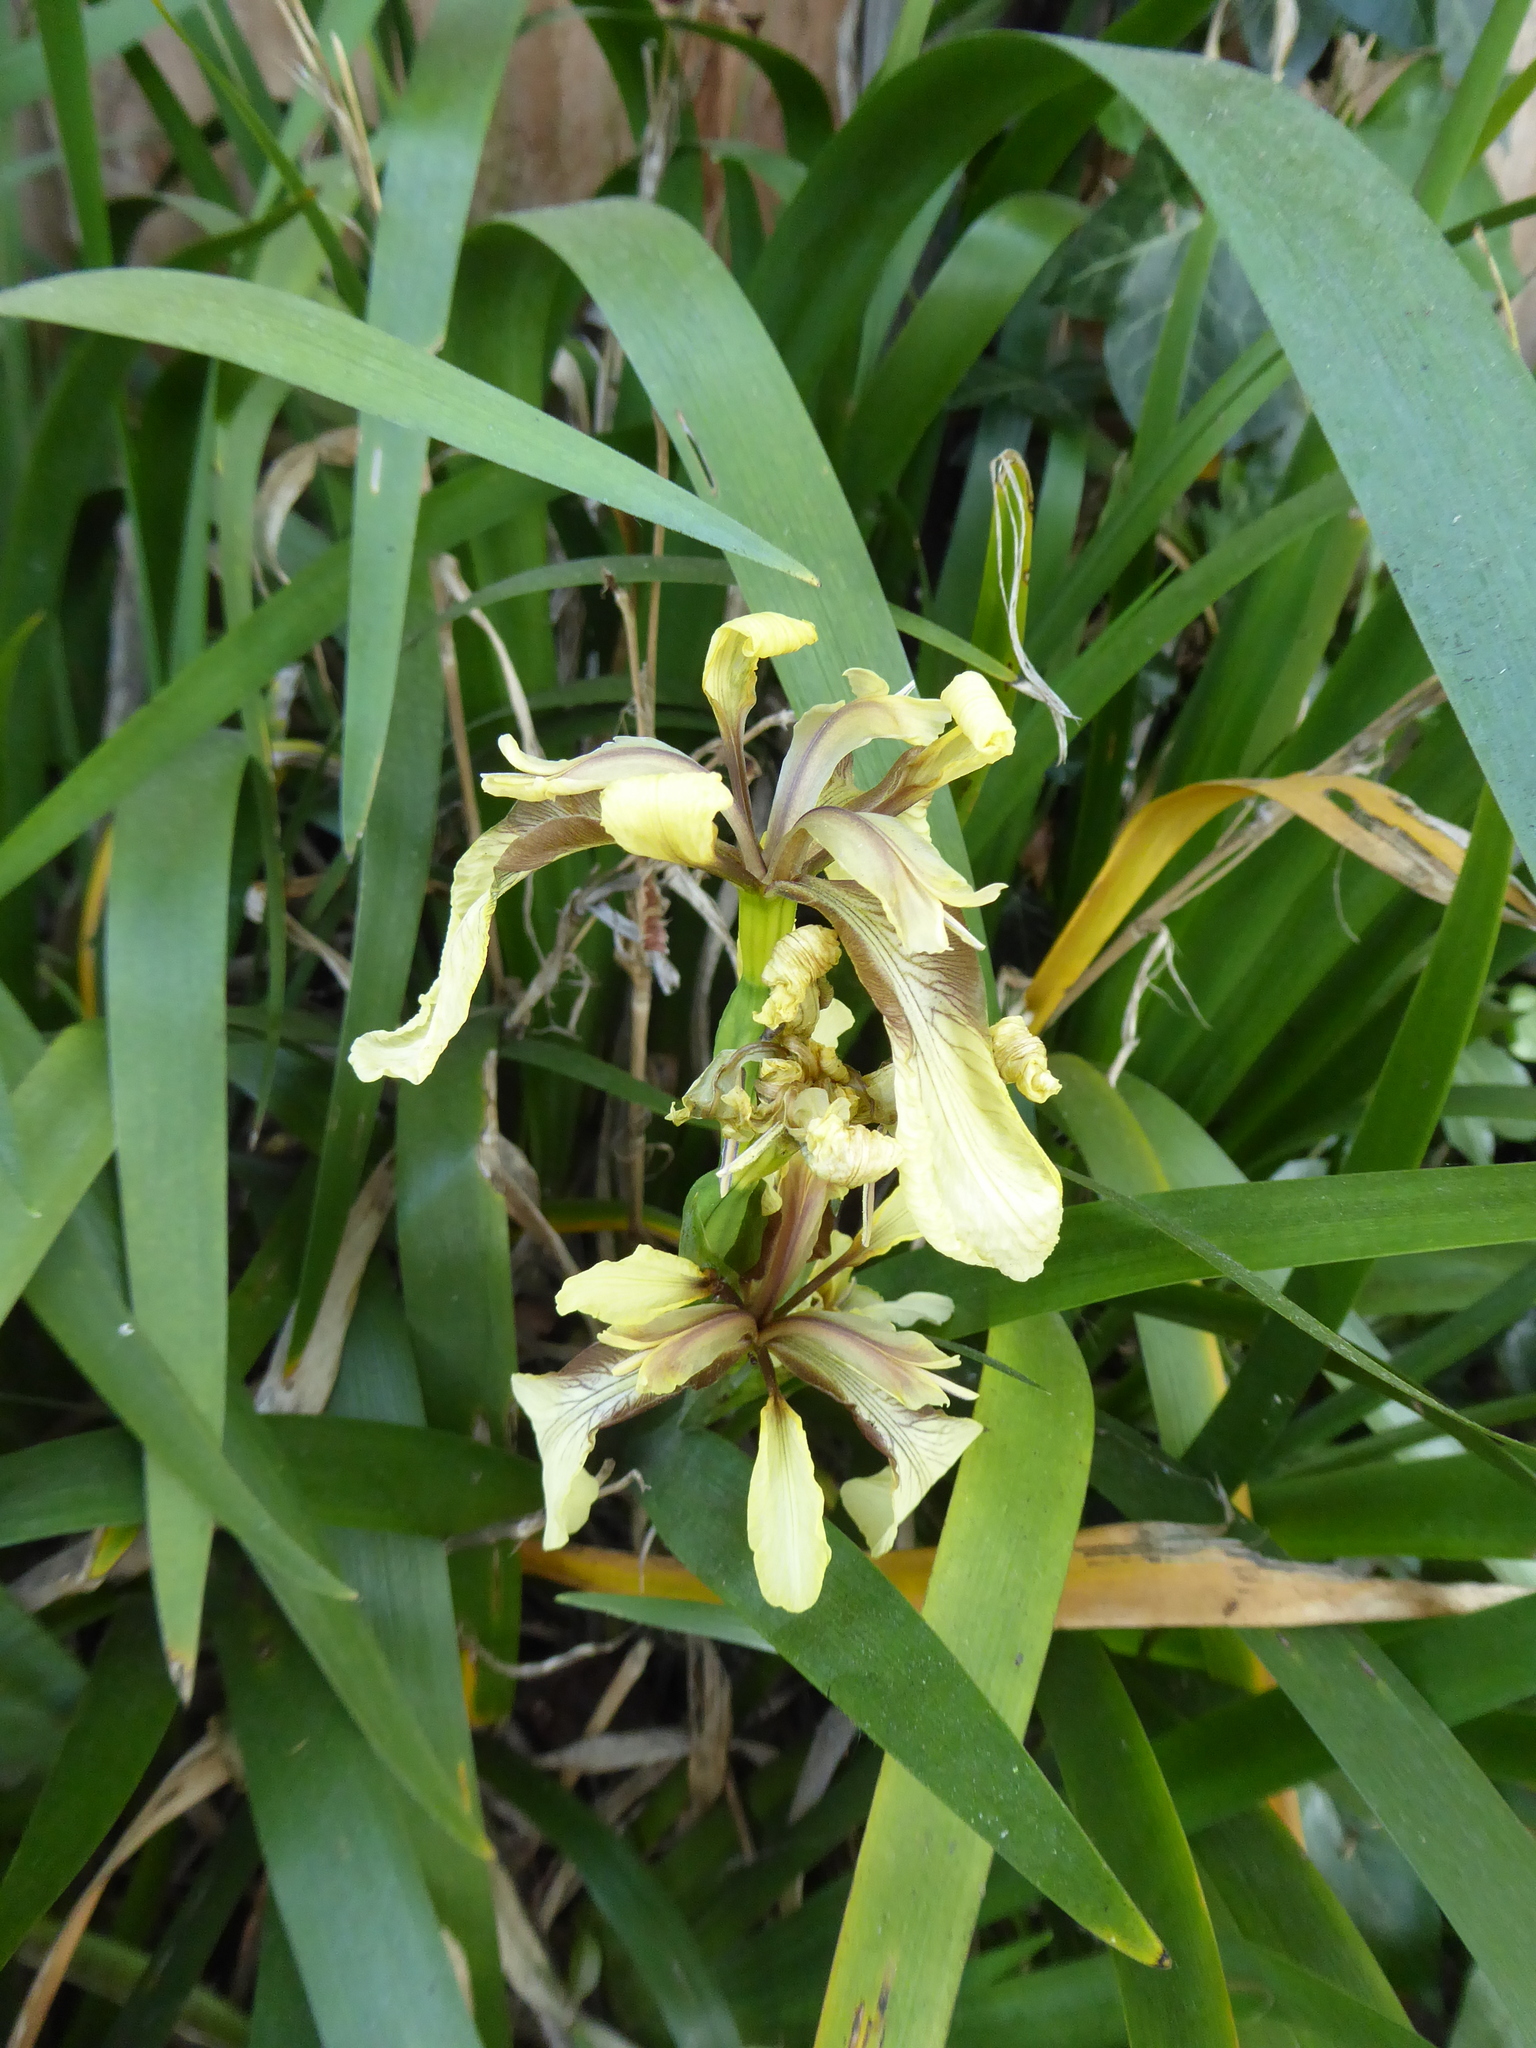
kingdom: Plantae
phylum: Tracheophyta
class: Liliopsida
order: Asparagales
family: Iridaceae
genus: Iris
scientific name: Iris foetidissima
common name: Stinking iris
